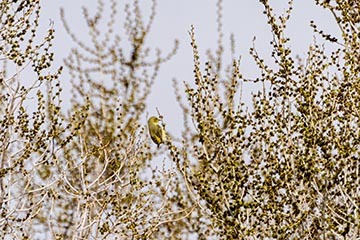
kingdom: Animalia
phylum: Chordata
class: Aves
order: Passeriformes
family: Parulidae
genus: Setophaga
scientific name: Setophaga petechia
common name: Yellow warbler
